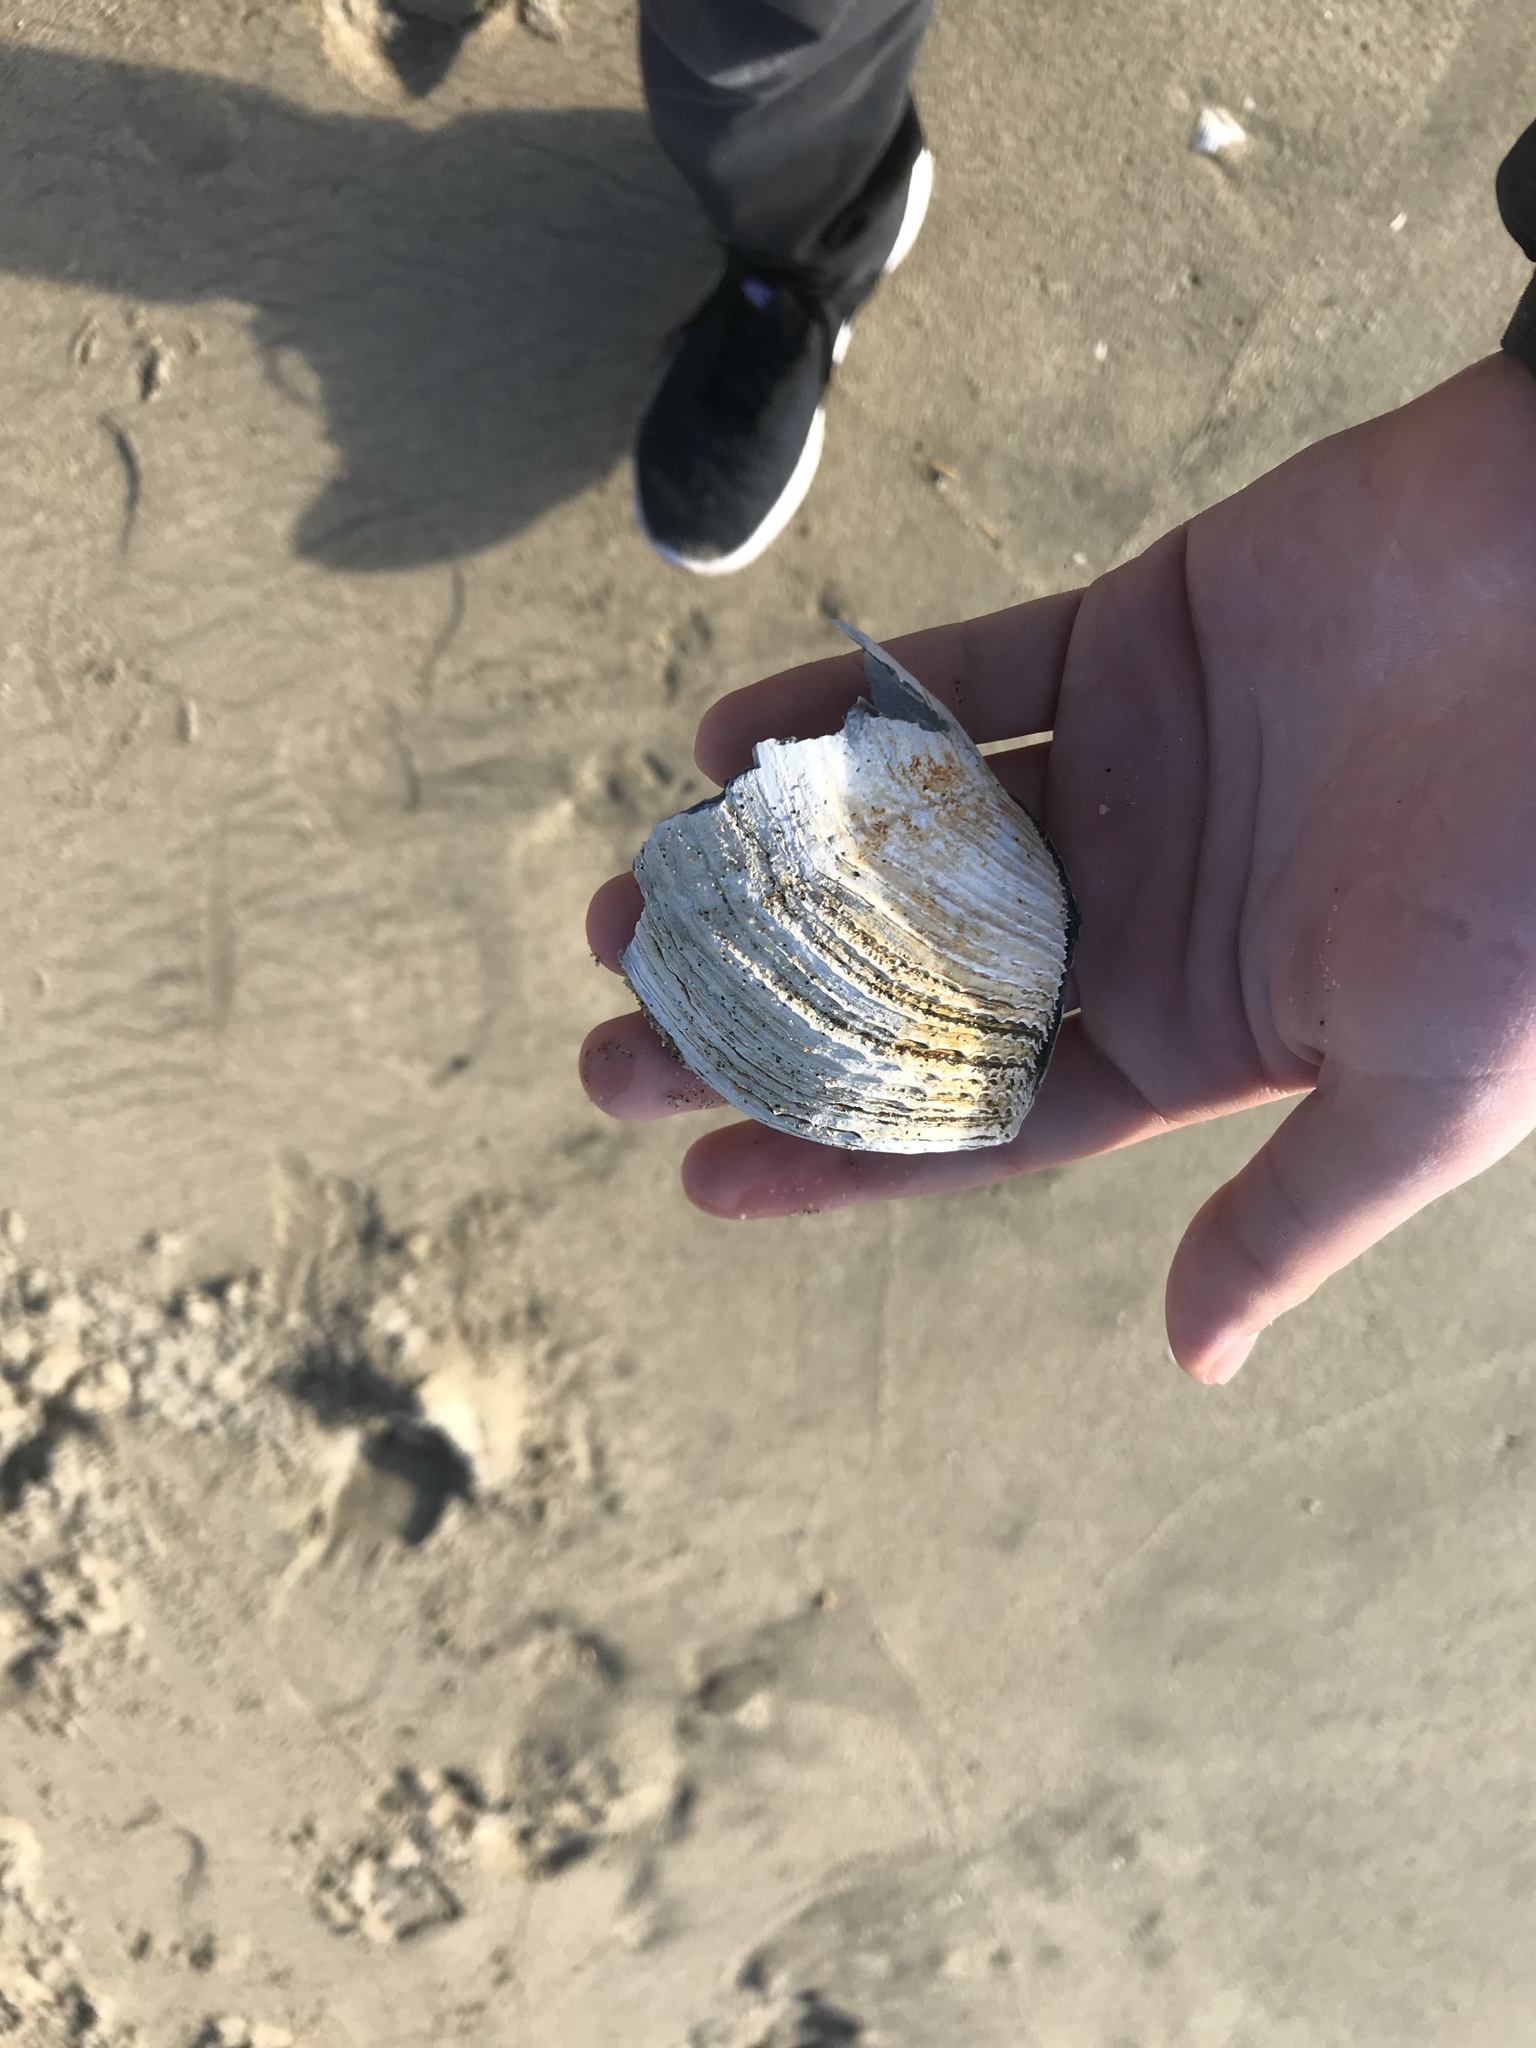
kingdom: Animalia
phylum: Mollusca
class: Bivalvia
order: Myida
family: Pholadidae
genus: Zirfaea
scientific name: Zirfaea pilsbryi
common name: Rough piddock
